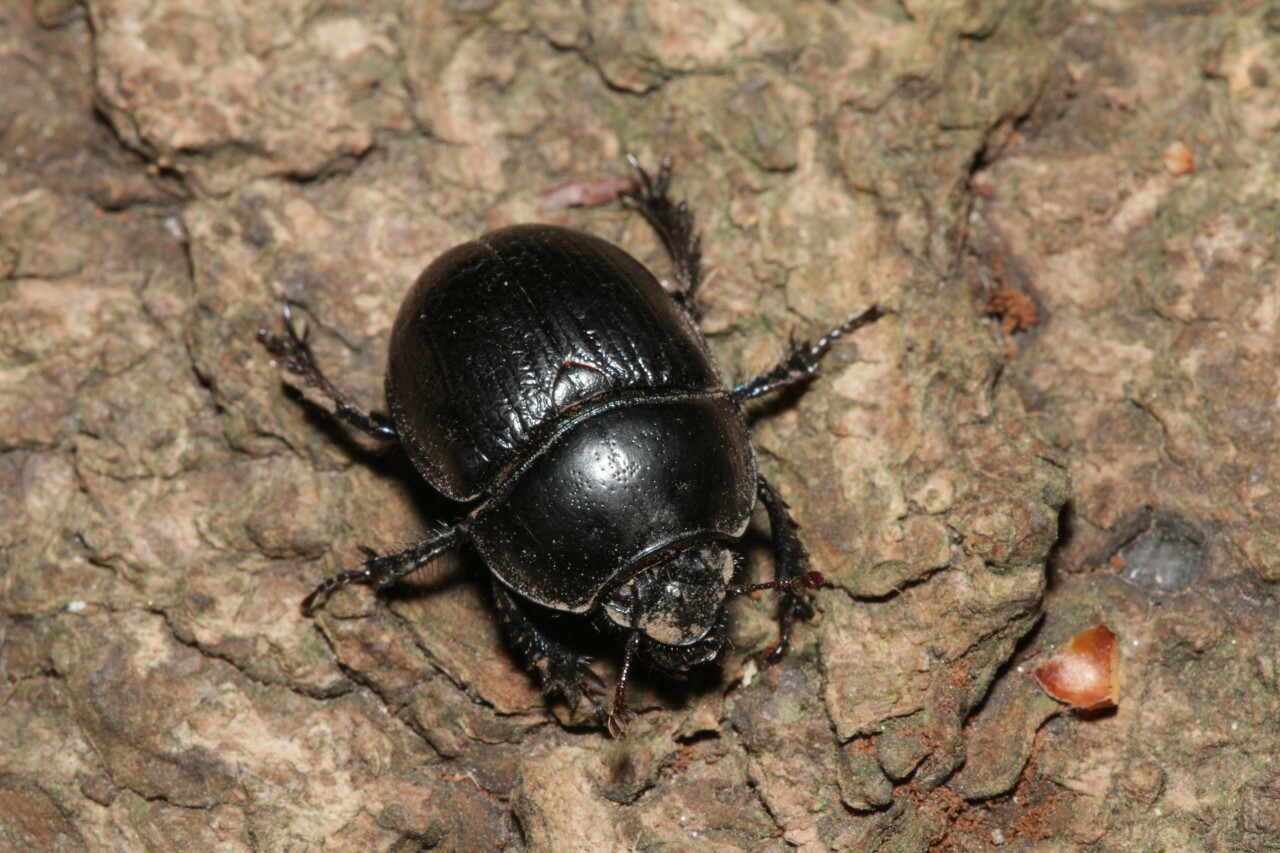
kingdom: Animalia
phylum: Arthropoda
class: Insecta
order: Coleoptera
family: Geotrupidae
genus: Anoplotrupes
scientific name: Anoplotrupes stercorosus
